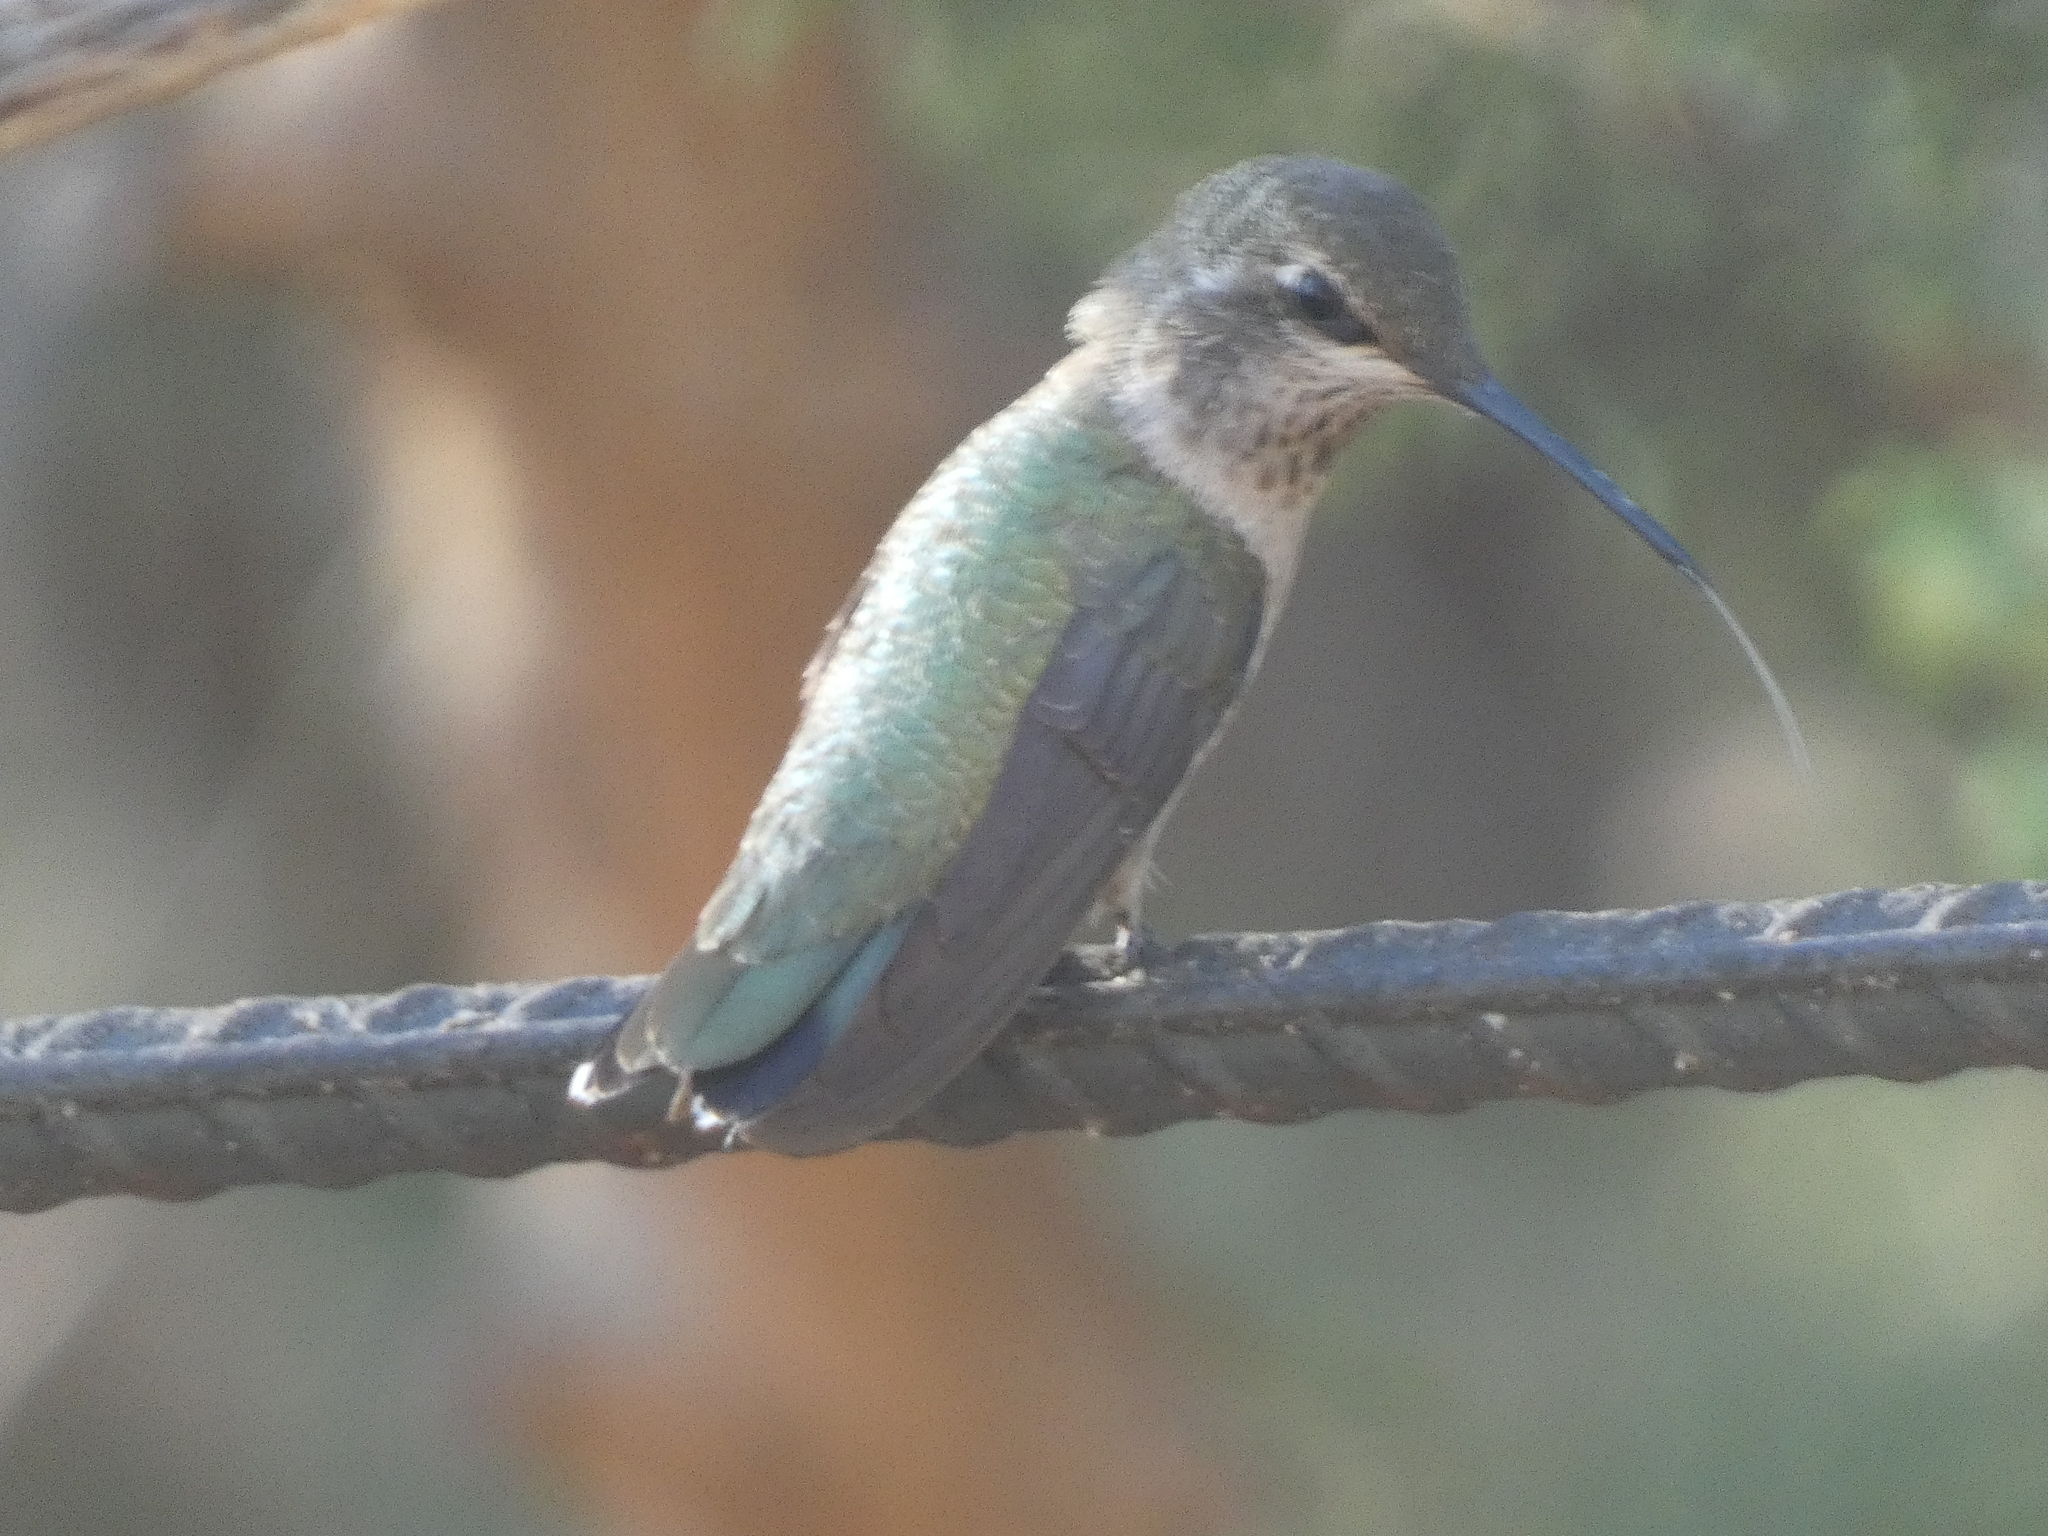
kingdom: Animalia
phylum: Chordata
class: Aves
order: Apodiformes
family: Trochilidae
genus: Archilochus
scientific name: Archilochus alexandri
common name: Black-chinned hummingbird
